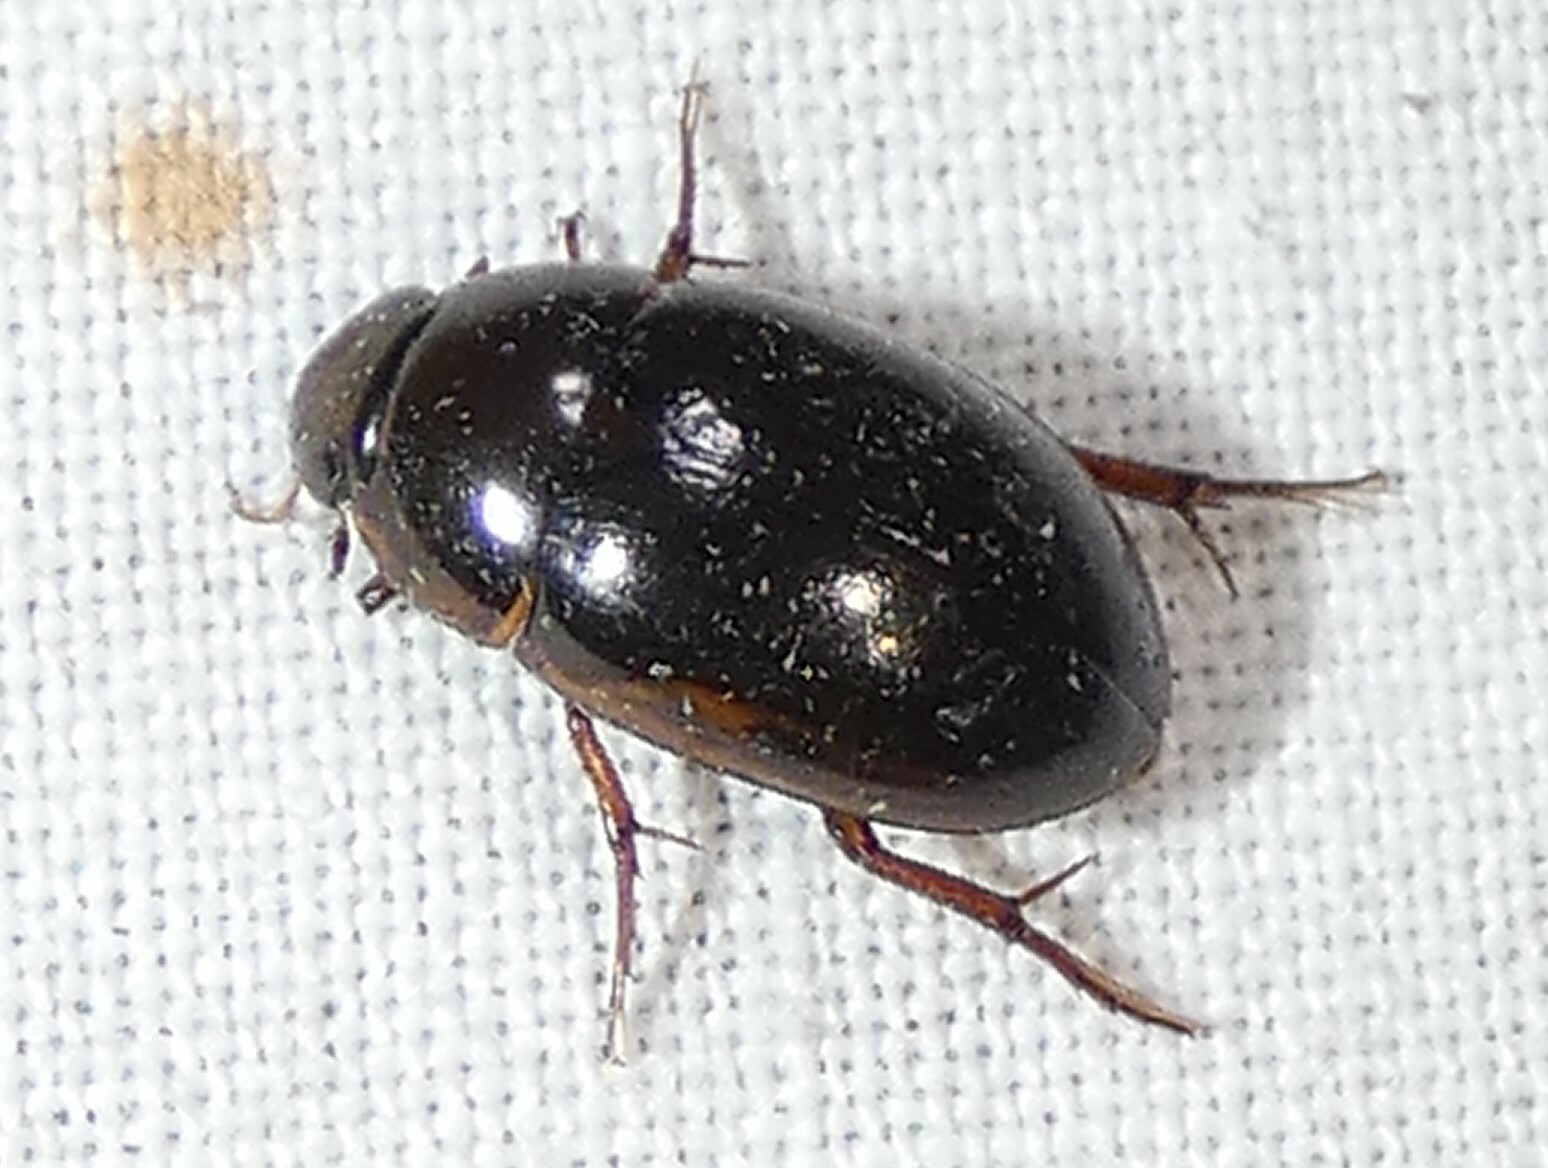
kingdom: Animalia
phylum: Arthropoda
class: Insecta
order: Coleoptera
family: Hydrophilidae
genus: Tropisternus
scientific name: Tropisternus collaris
